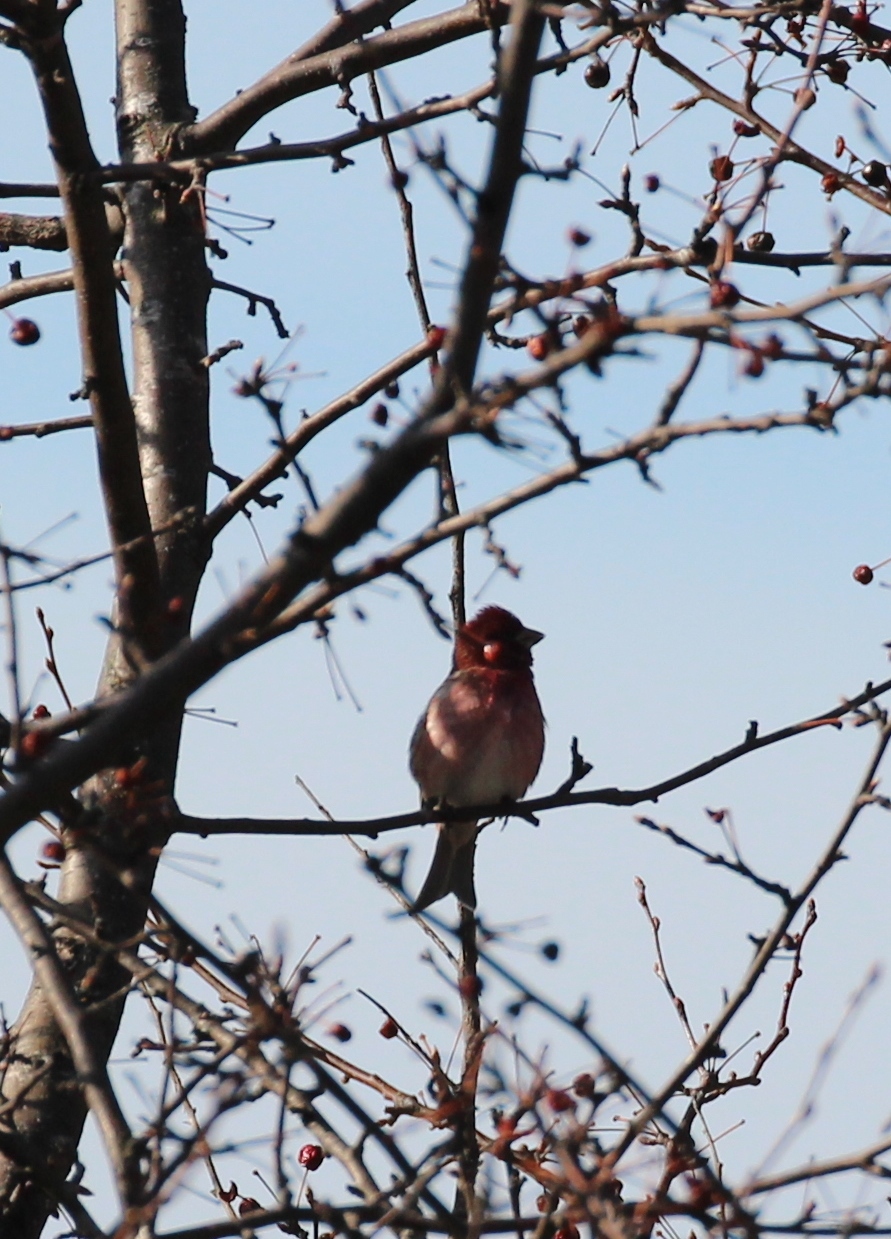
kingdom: Animalia
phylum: Chordata
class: Aves
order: Passeriformes
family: Fringillidae
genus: Haemorhous
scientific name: Haemorhous purpureus
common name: Purple finch
